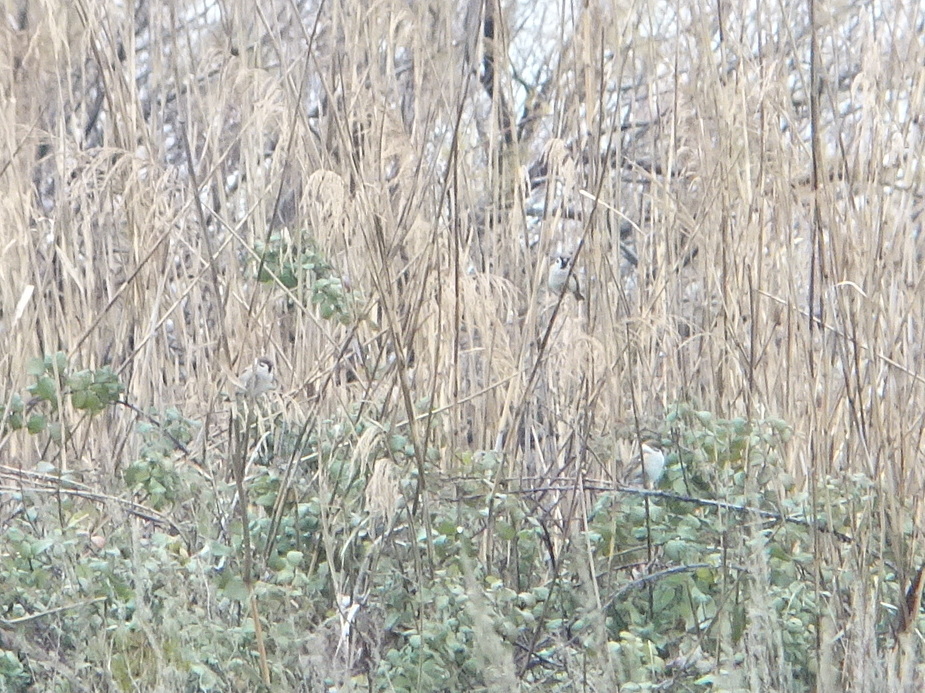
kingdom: Animalia
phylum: Chordata
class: Aves
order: Passeriformes
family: Passeridae
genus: Passer
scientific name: Passer montanus
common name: Eurasian tree sparrow
